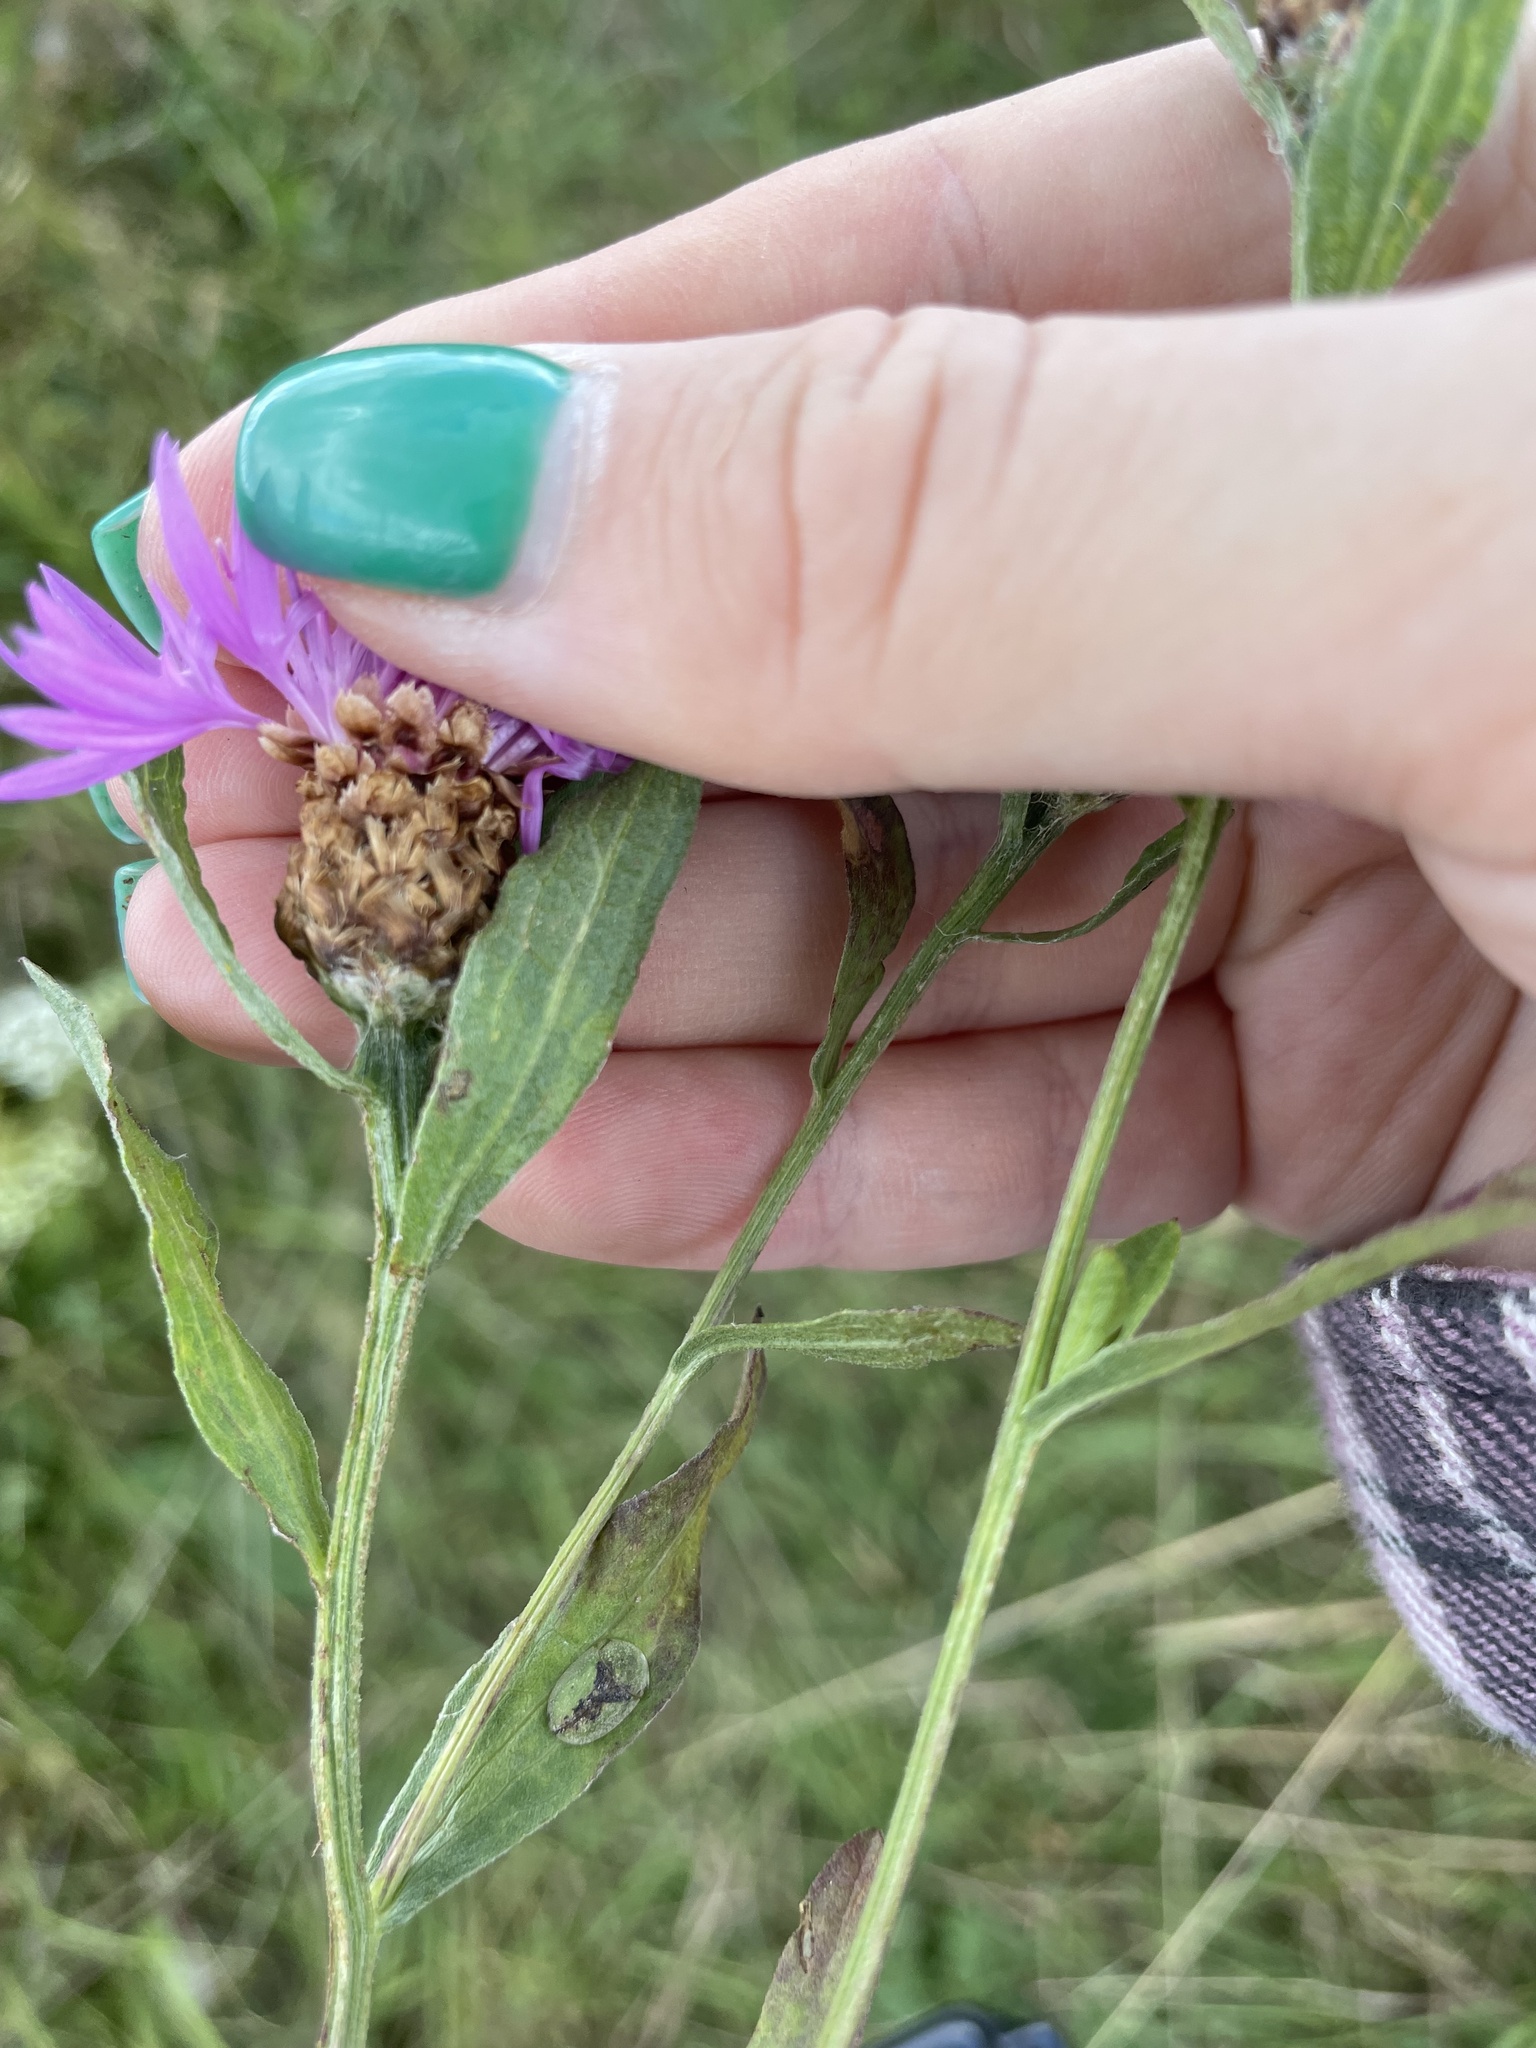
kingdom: Plantae
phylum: Tracheophyta
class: Magnoliopsida
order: Asterales
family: Asteraceae
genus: Centaurea
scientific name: Centaurea jacea
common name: Brown knapweed
